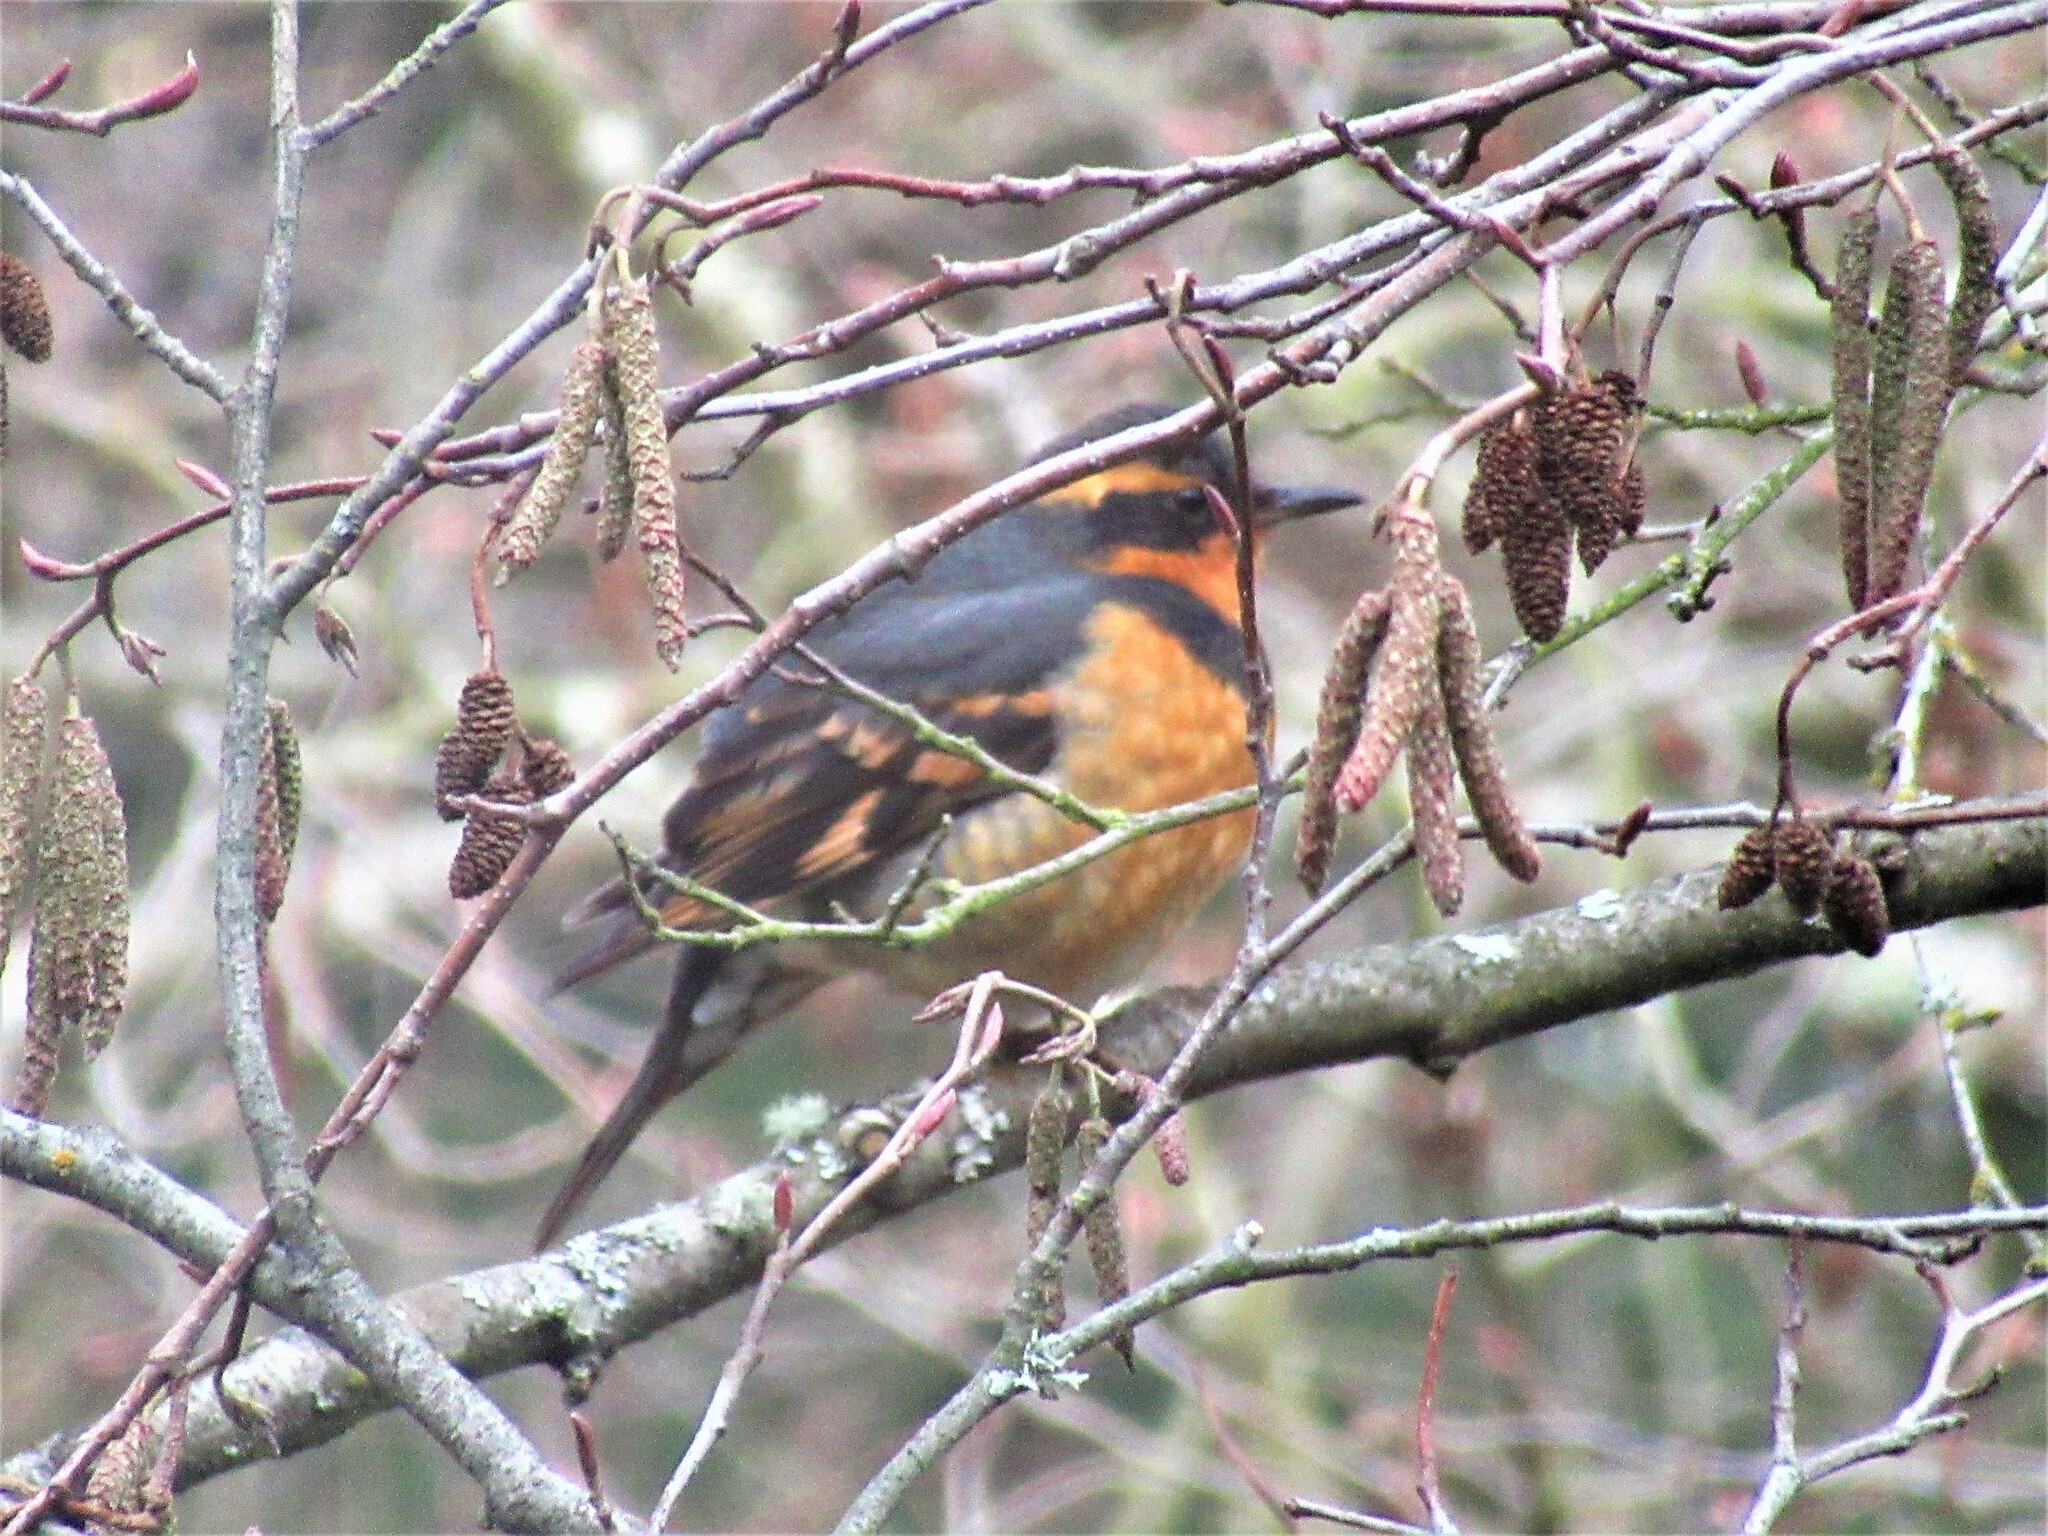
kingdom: Animalia
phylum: Chordata
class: Aves
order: Passeriformes
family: Turdidae
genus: Ixoreus
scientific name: Ixoreus naevius
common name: Varied thrush
